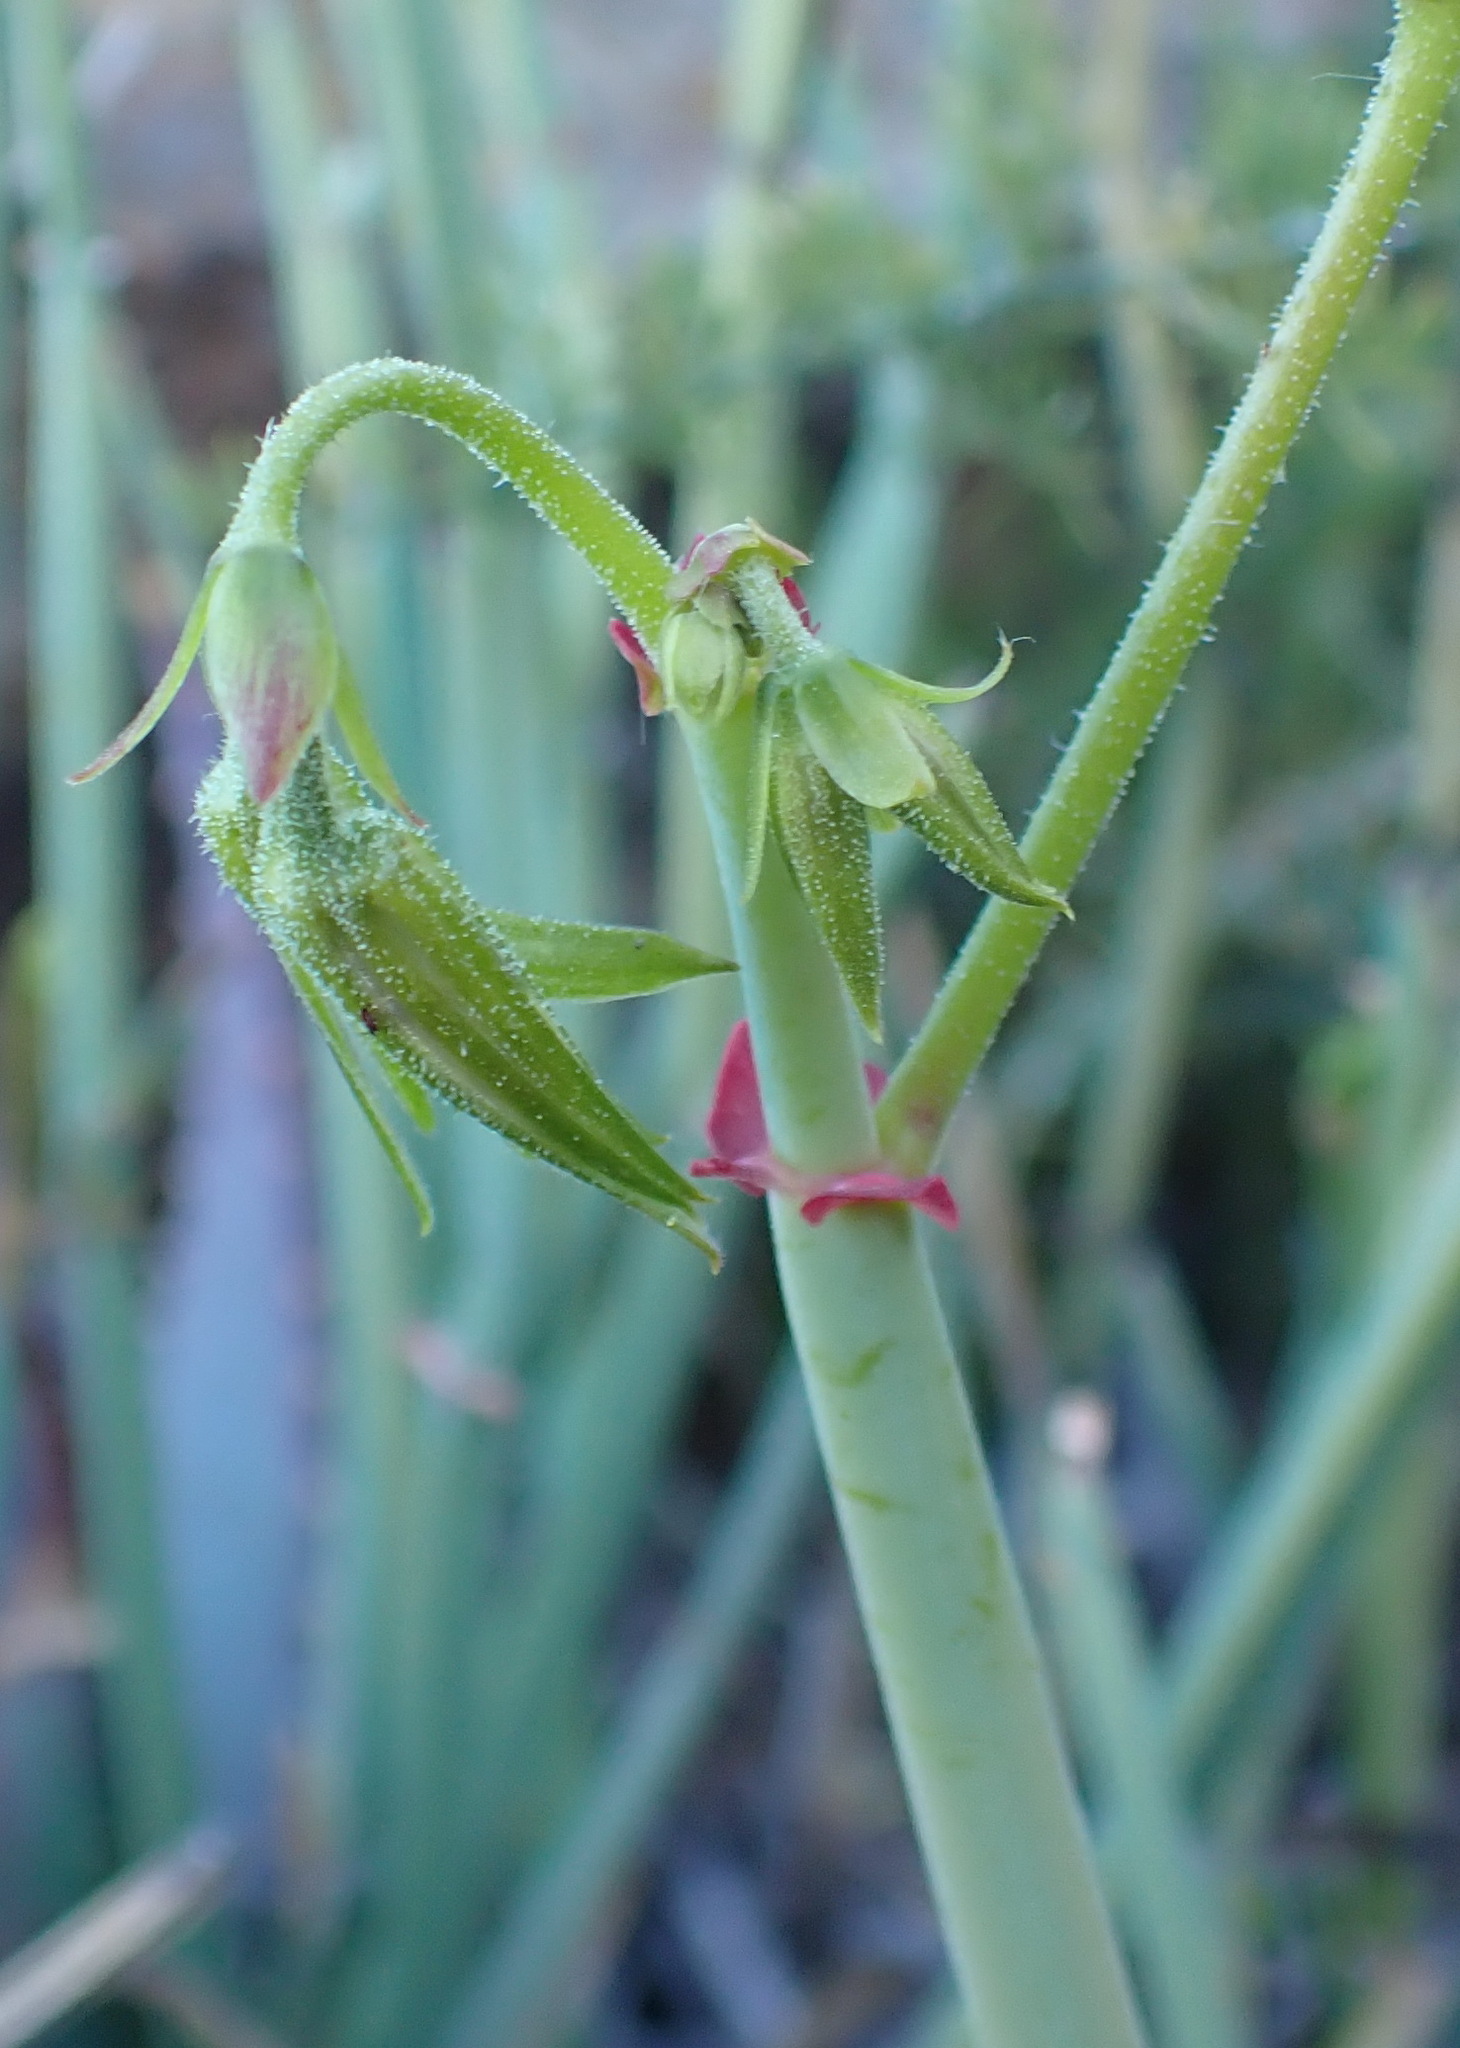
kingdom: Plantae
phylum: Tracheophyta
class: Magnoliopsida
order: Geraniales
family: Geraniaceae
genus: Pelargonium
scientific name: Pelargonium tetragonum
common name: Square-stack crane's-bill
